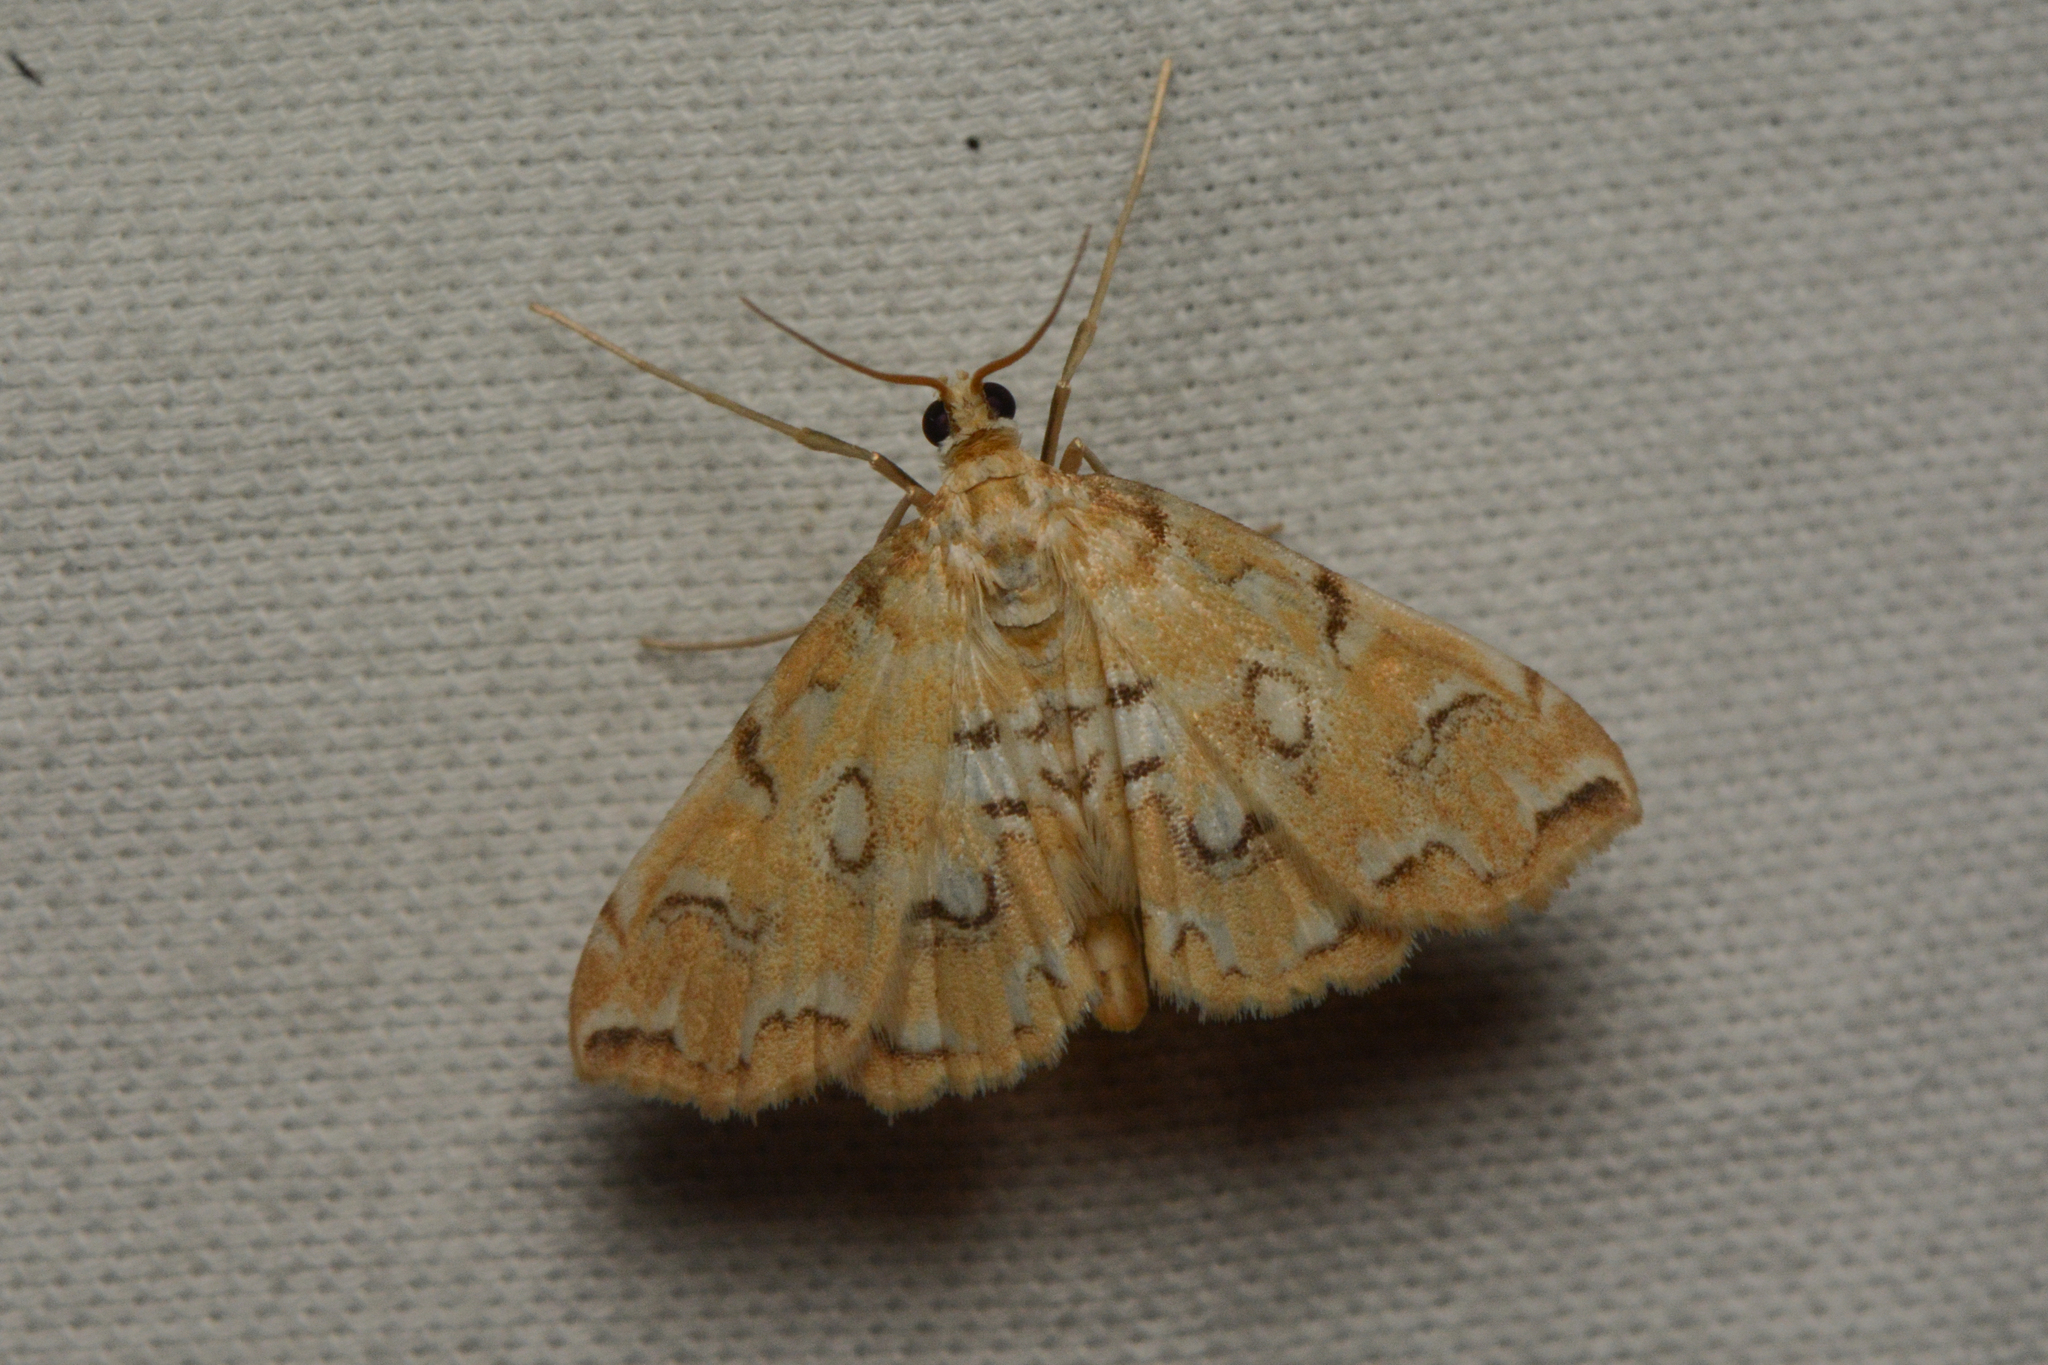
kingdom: Animalia
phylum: Arthropoda
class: Insecta
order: Lepidoptera
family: Crambidae
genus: Elophila
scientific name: Elophila icciusalis
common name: Pondside pyralid moth
